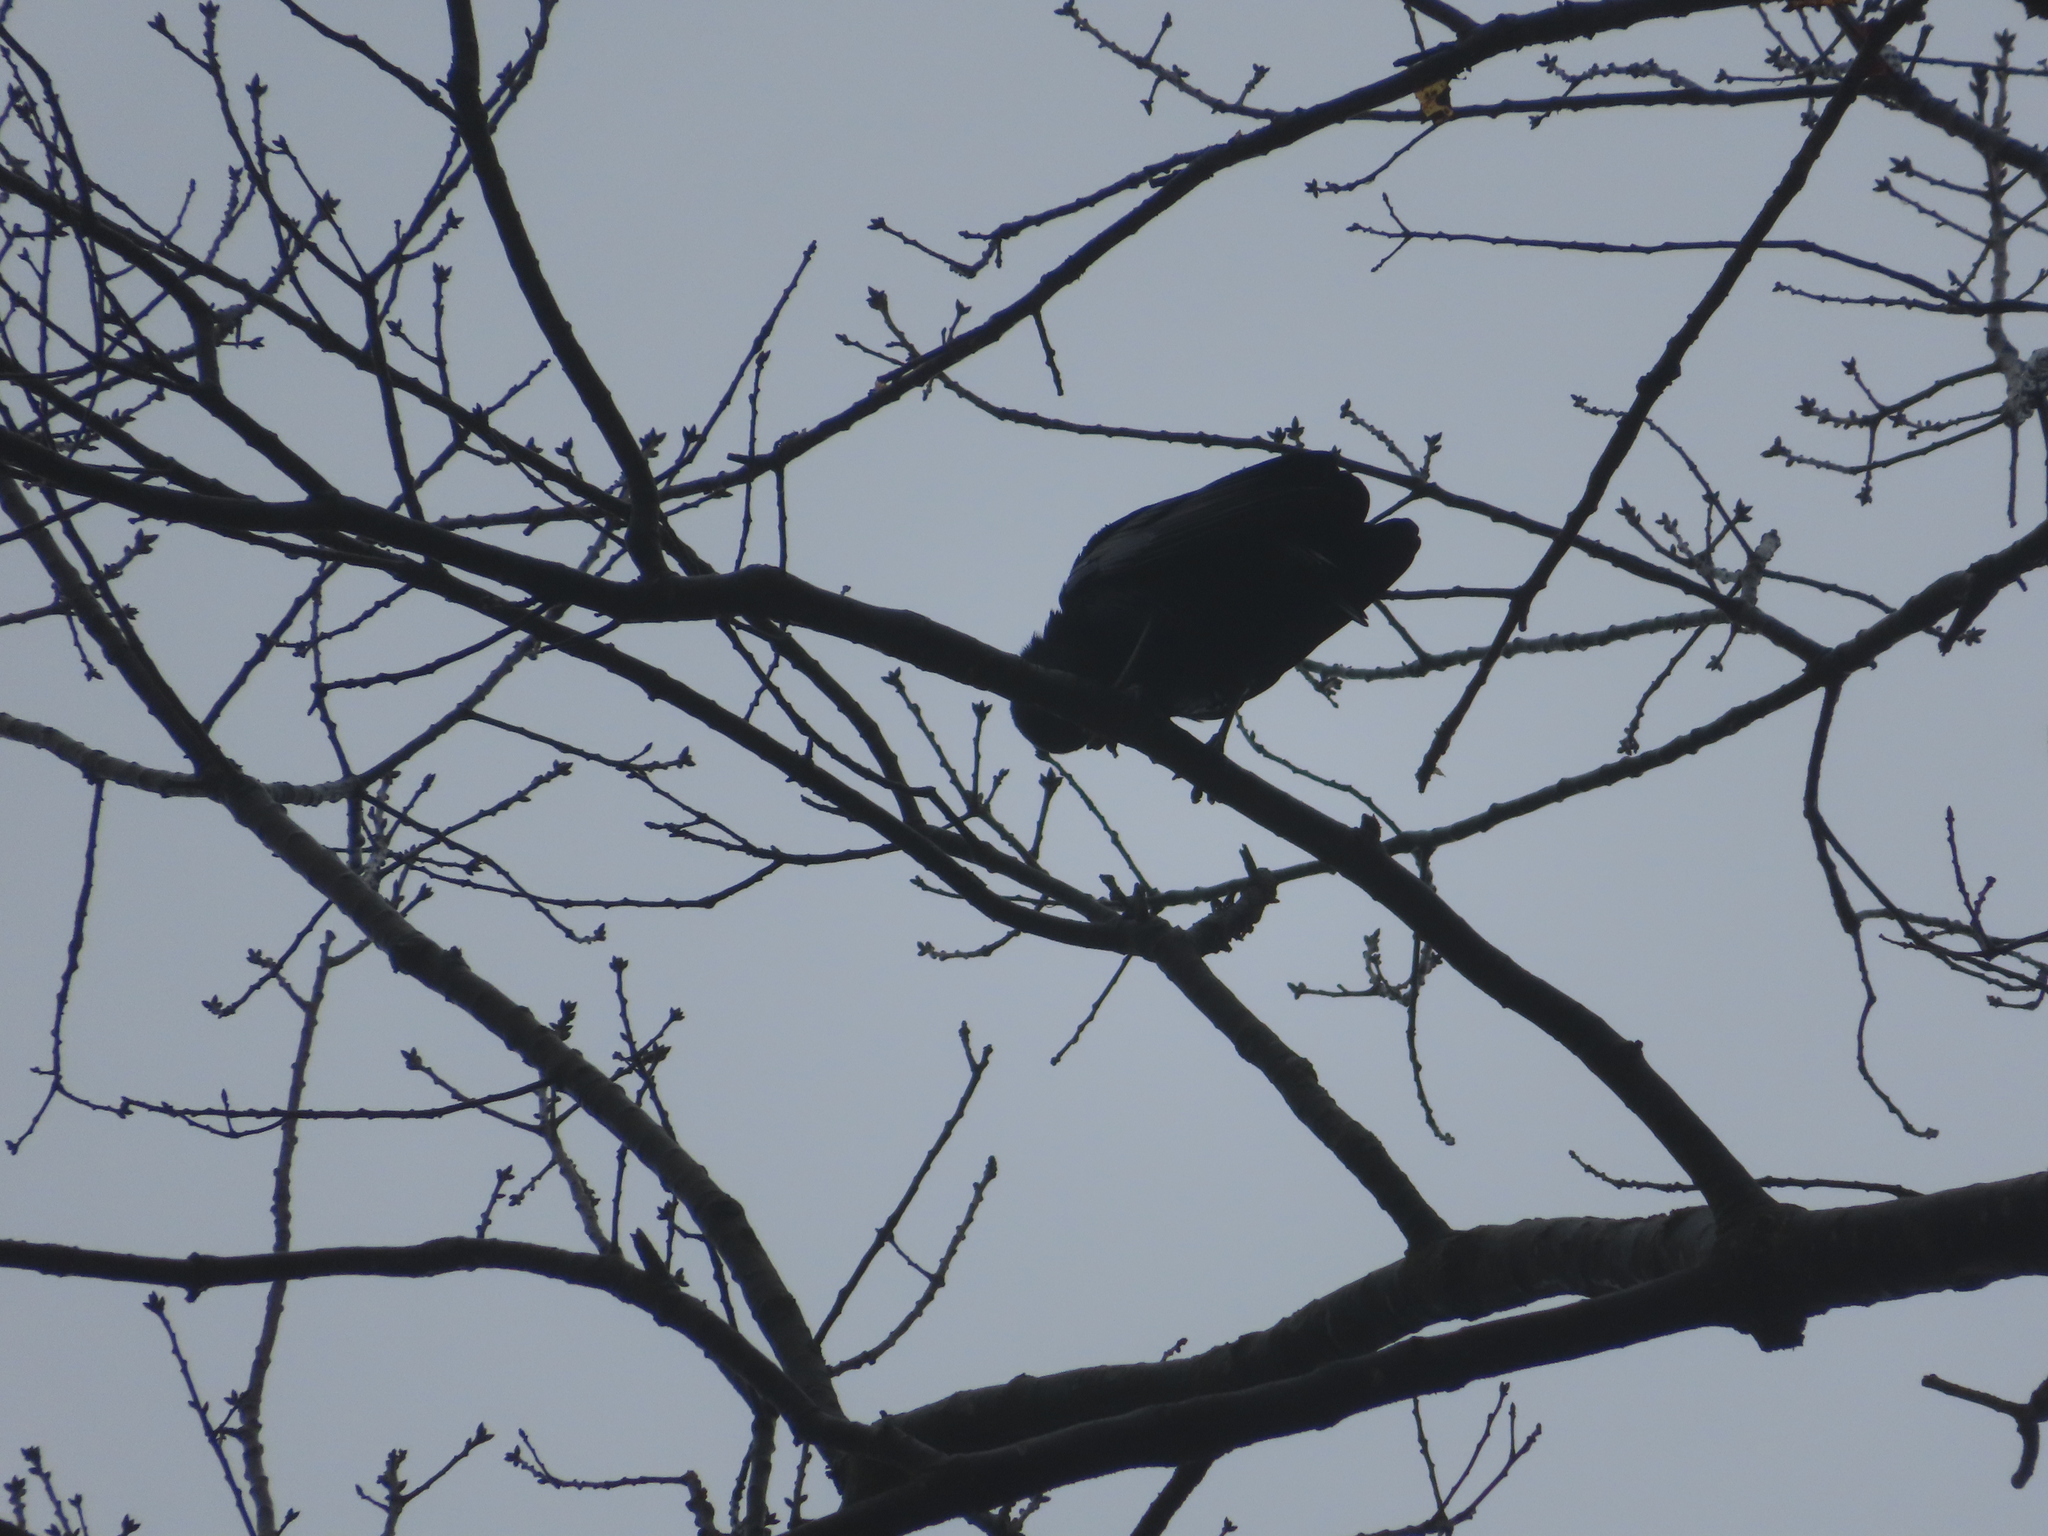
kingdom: Animalia
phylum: Chordata
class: Aves
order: Passeriformes
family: Corvidae
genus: Corvus
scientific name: Corvus
